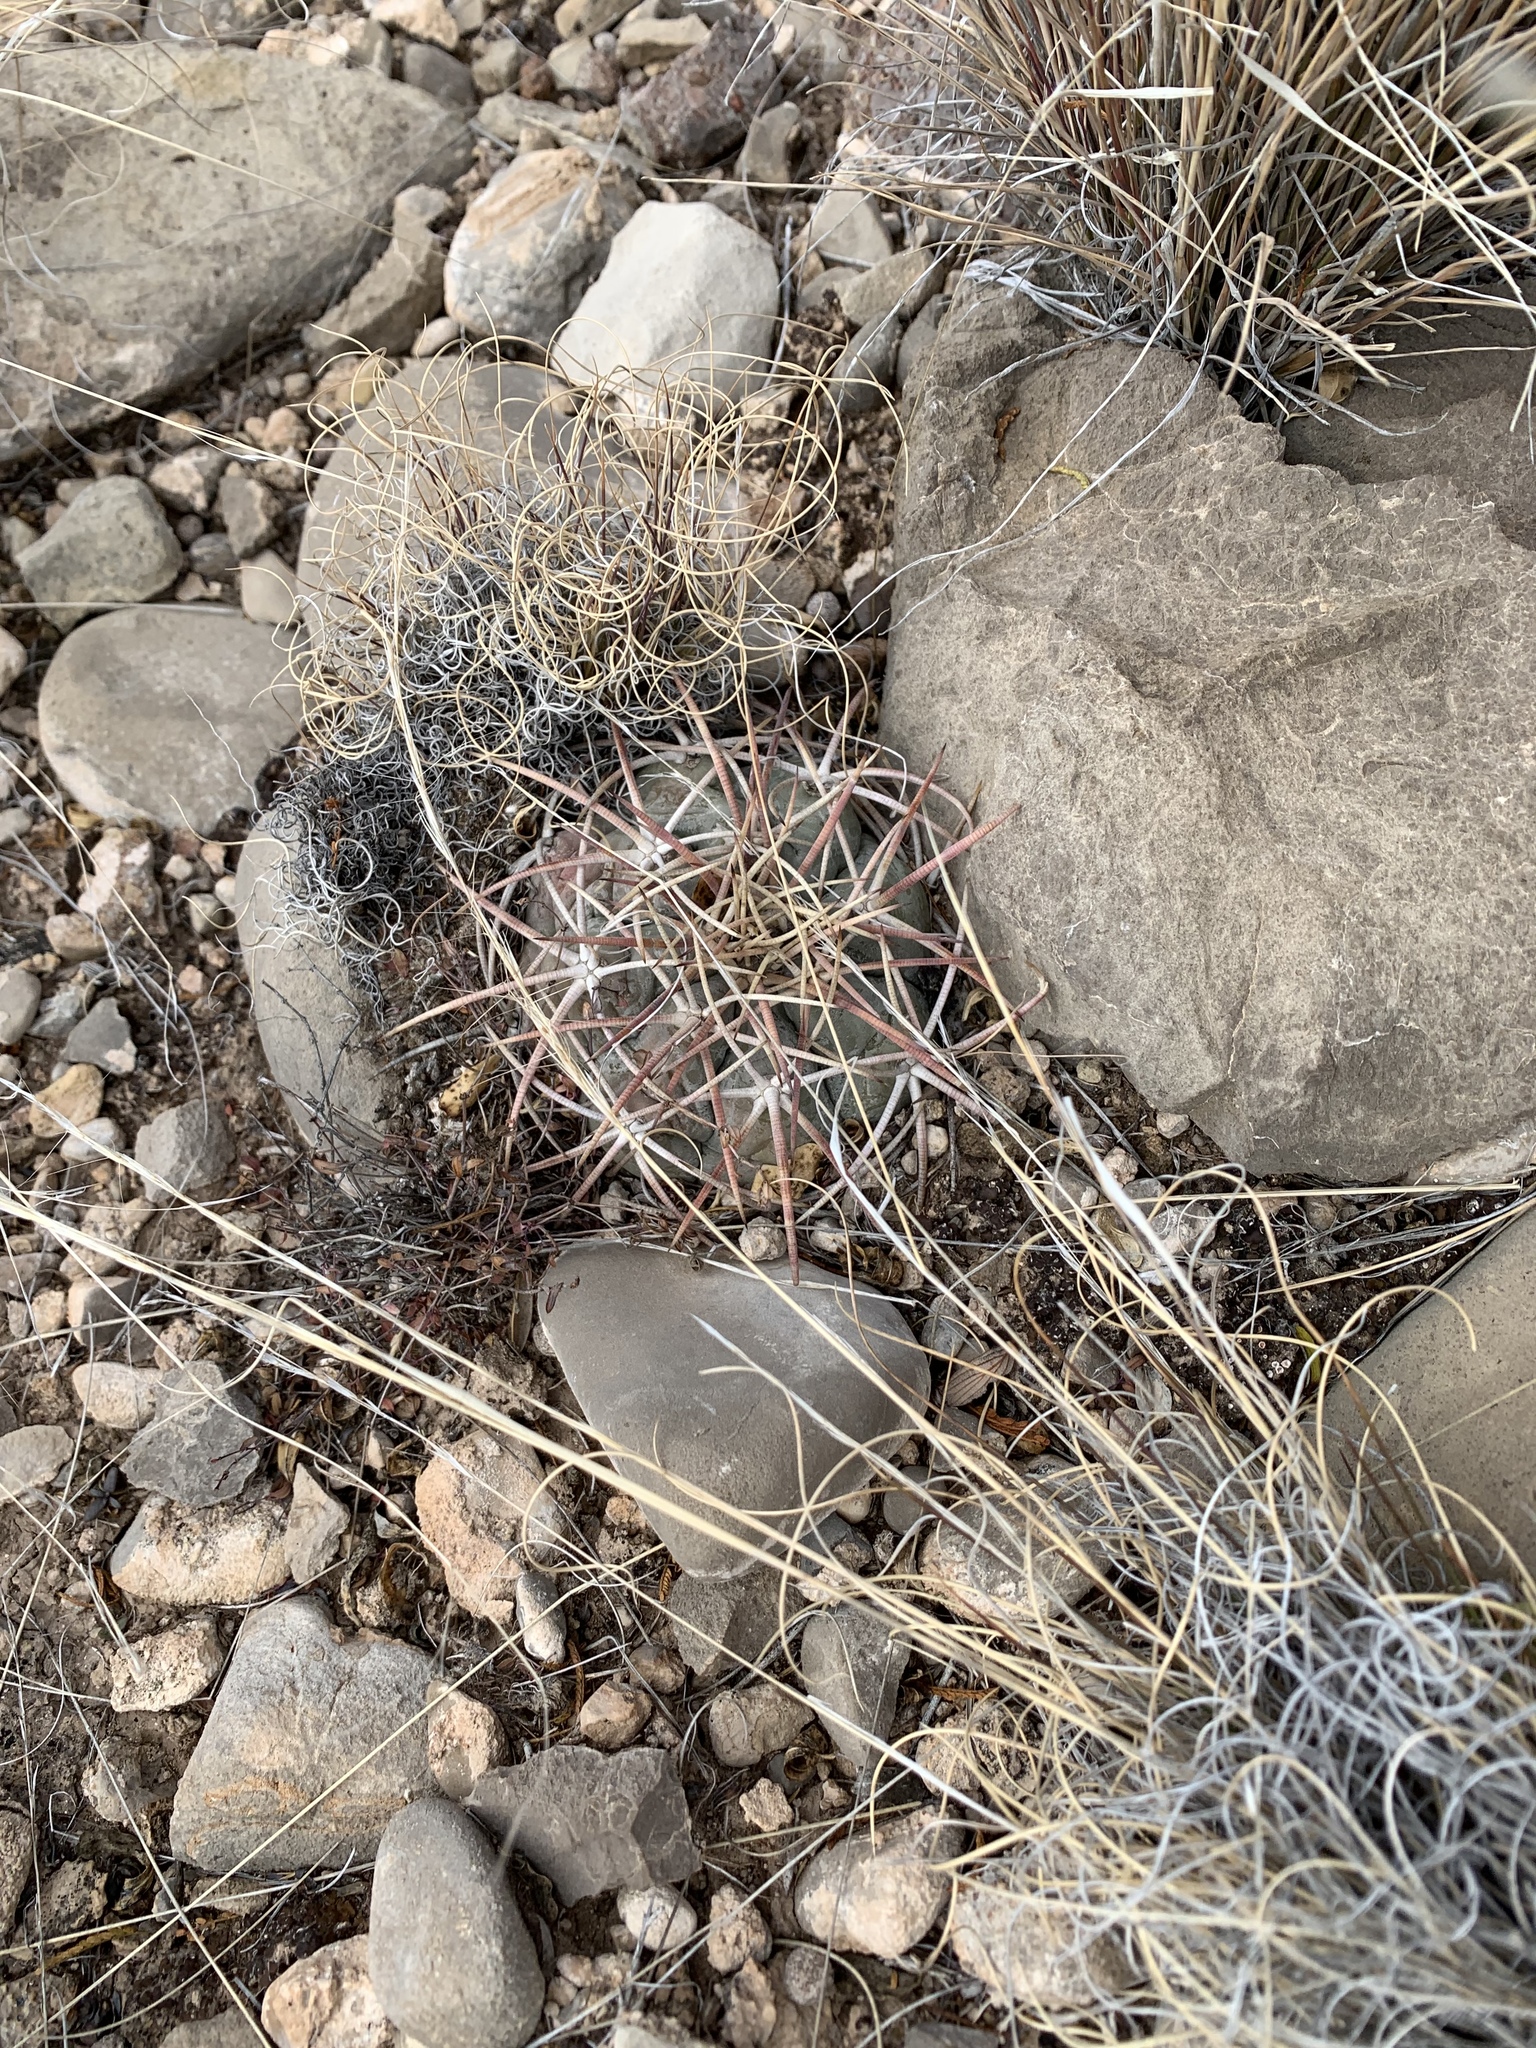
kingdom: Plantae
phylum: Tracheophyta
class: Magnoliopsida
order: Caryophyllales
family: Cactaceae
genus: Echinocactus
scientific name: Echinocactus horizonthalonius
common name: Devilshead
